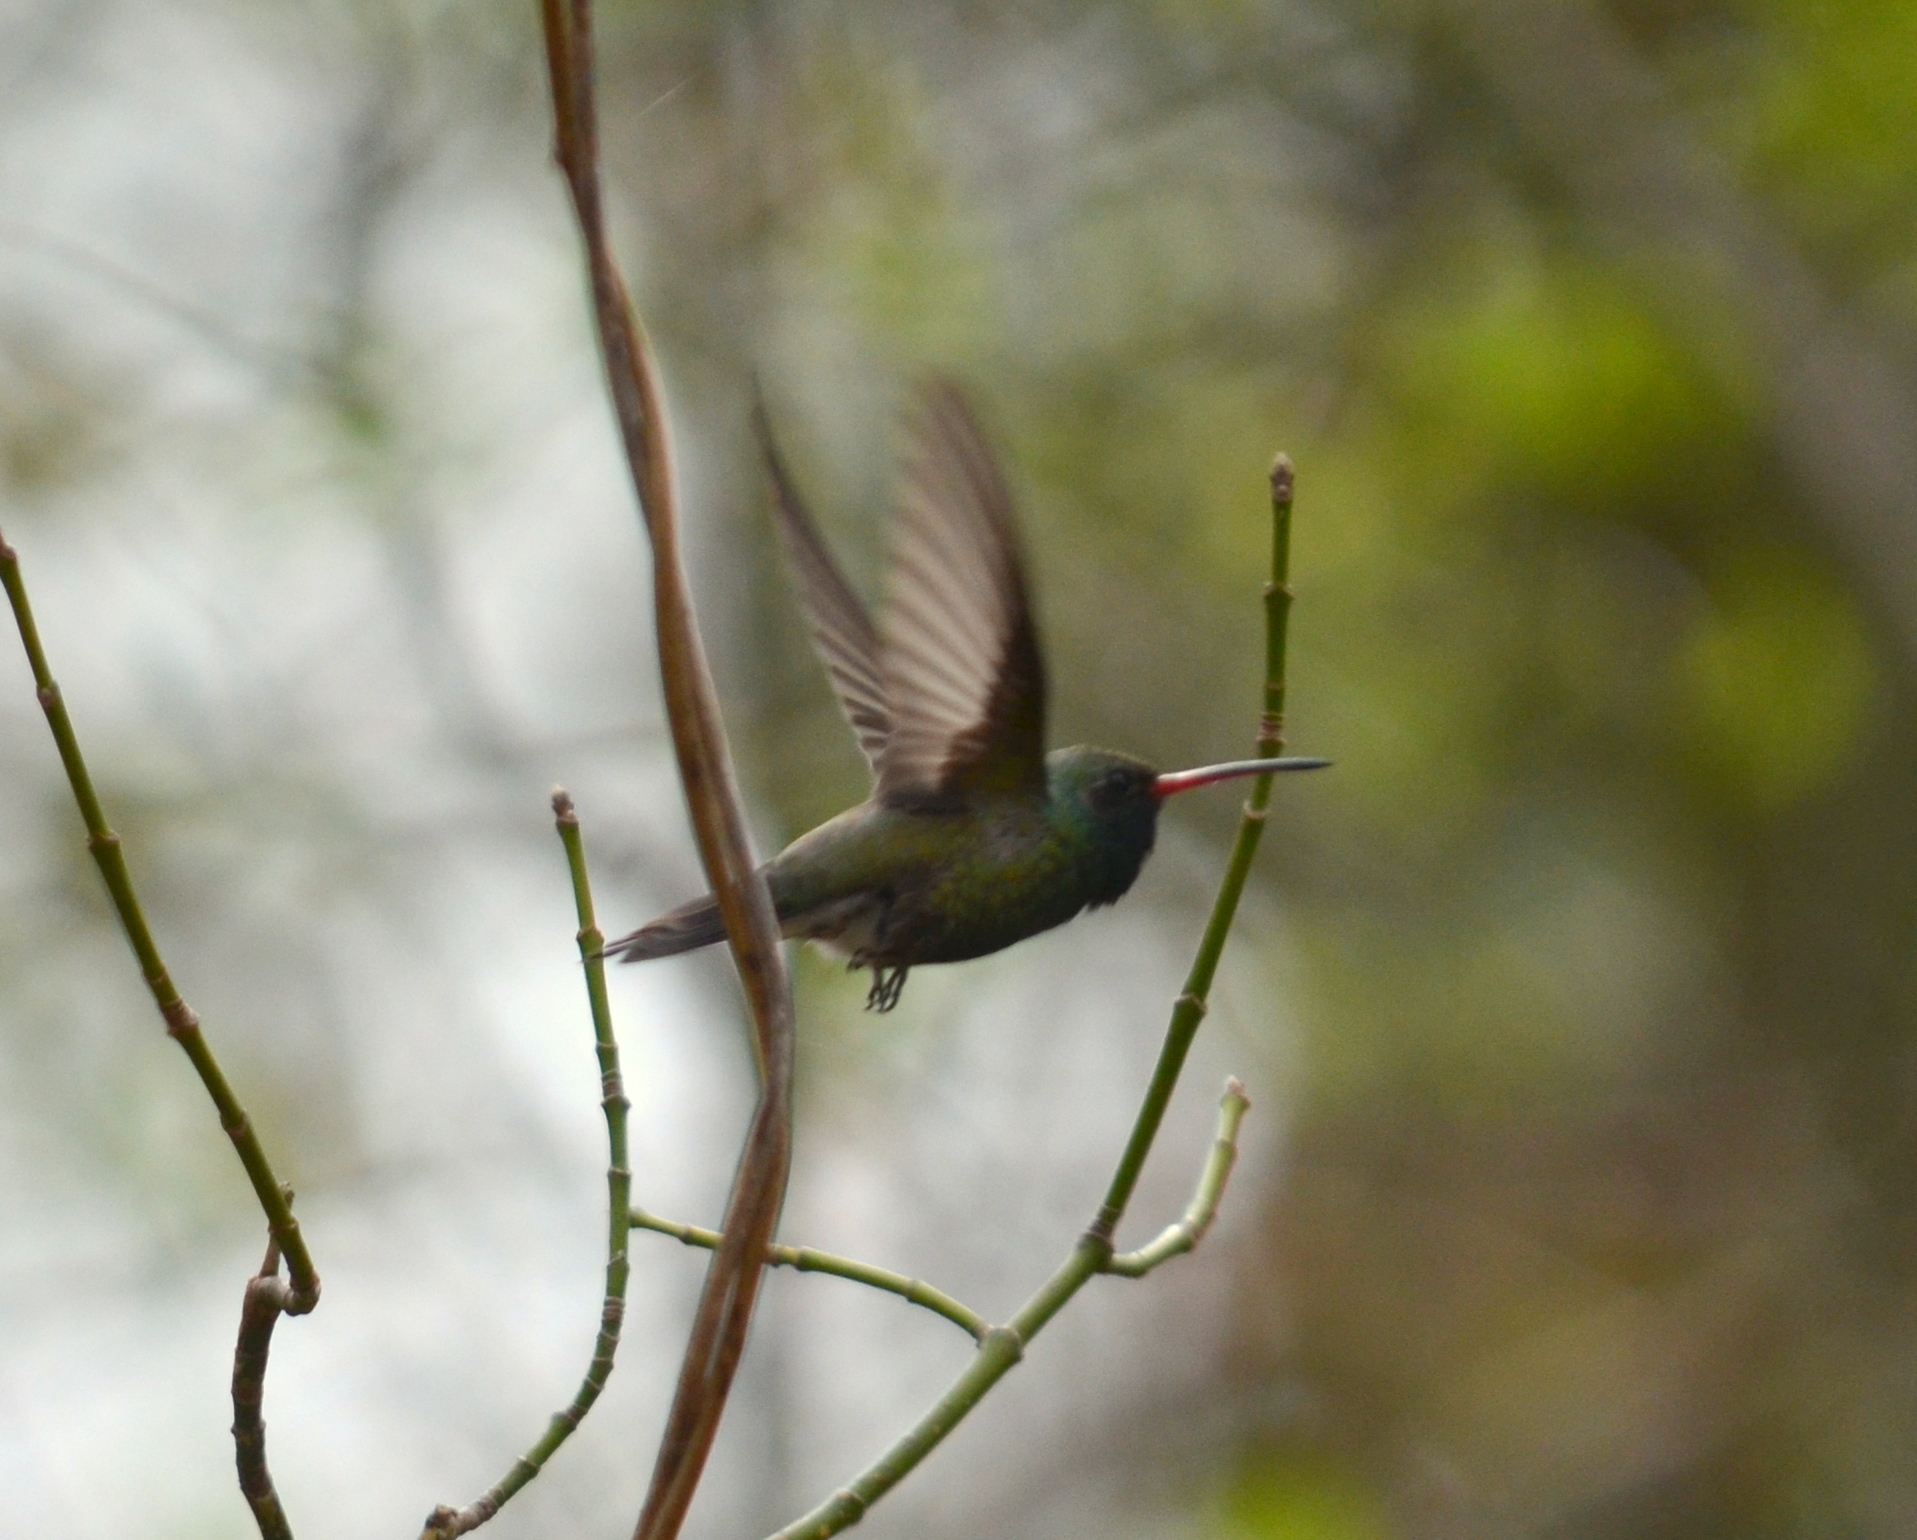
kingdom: Animalia
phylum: Chordata
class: Aves
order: Apodiformes
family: Trochilidae
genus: Cynanthus
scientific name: Cynanthus latirostris
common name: Broad-billed hummingbird
